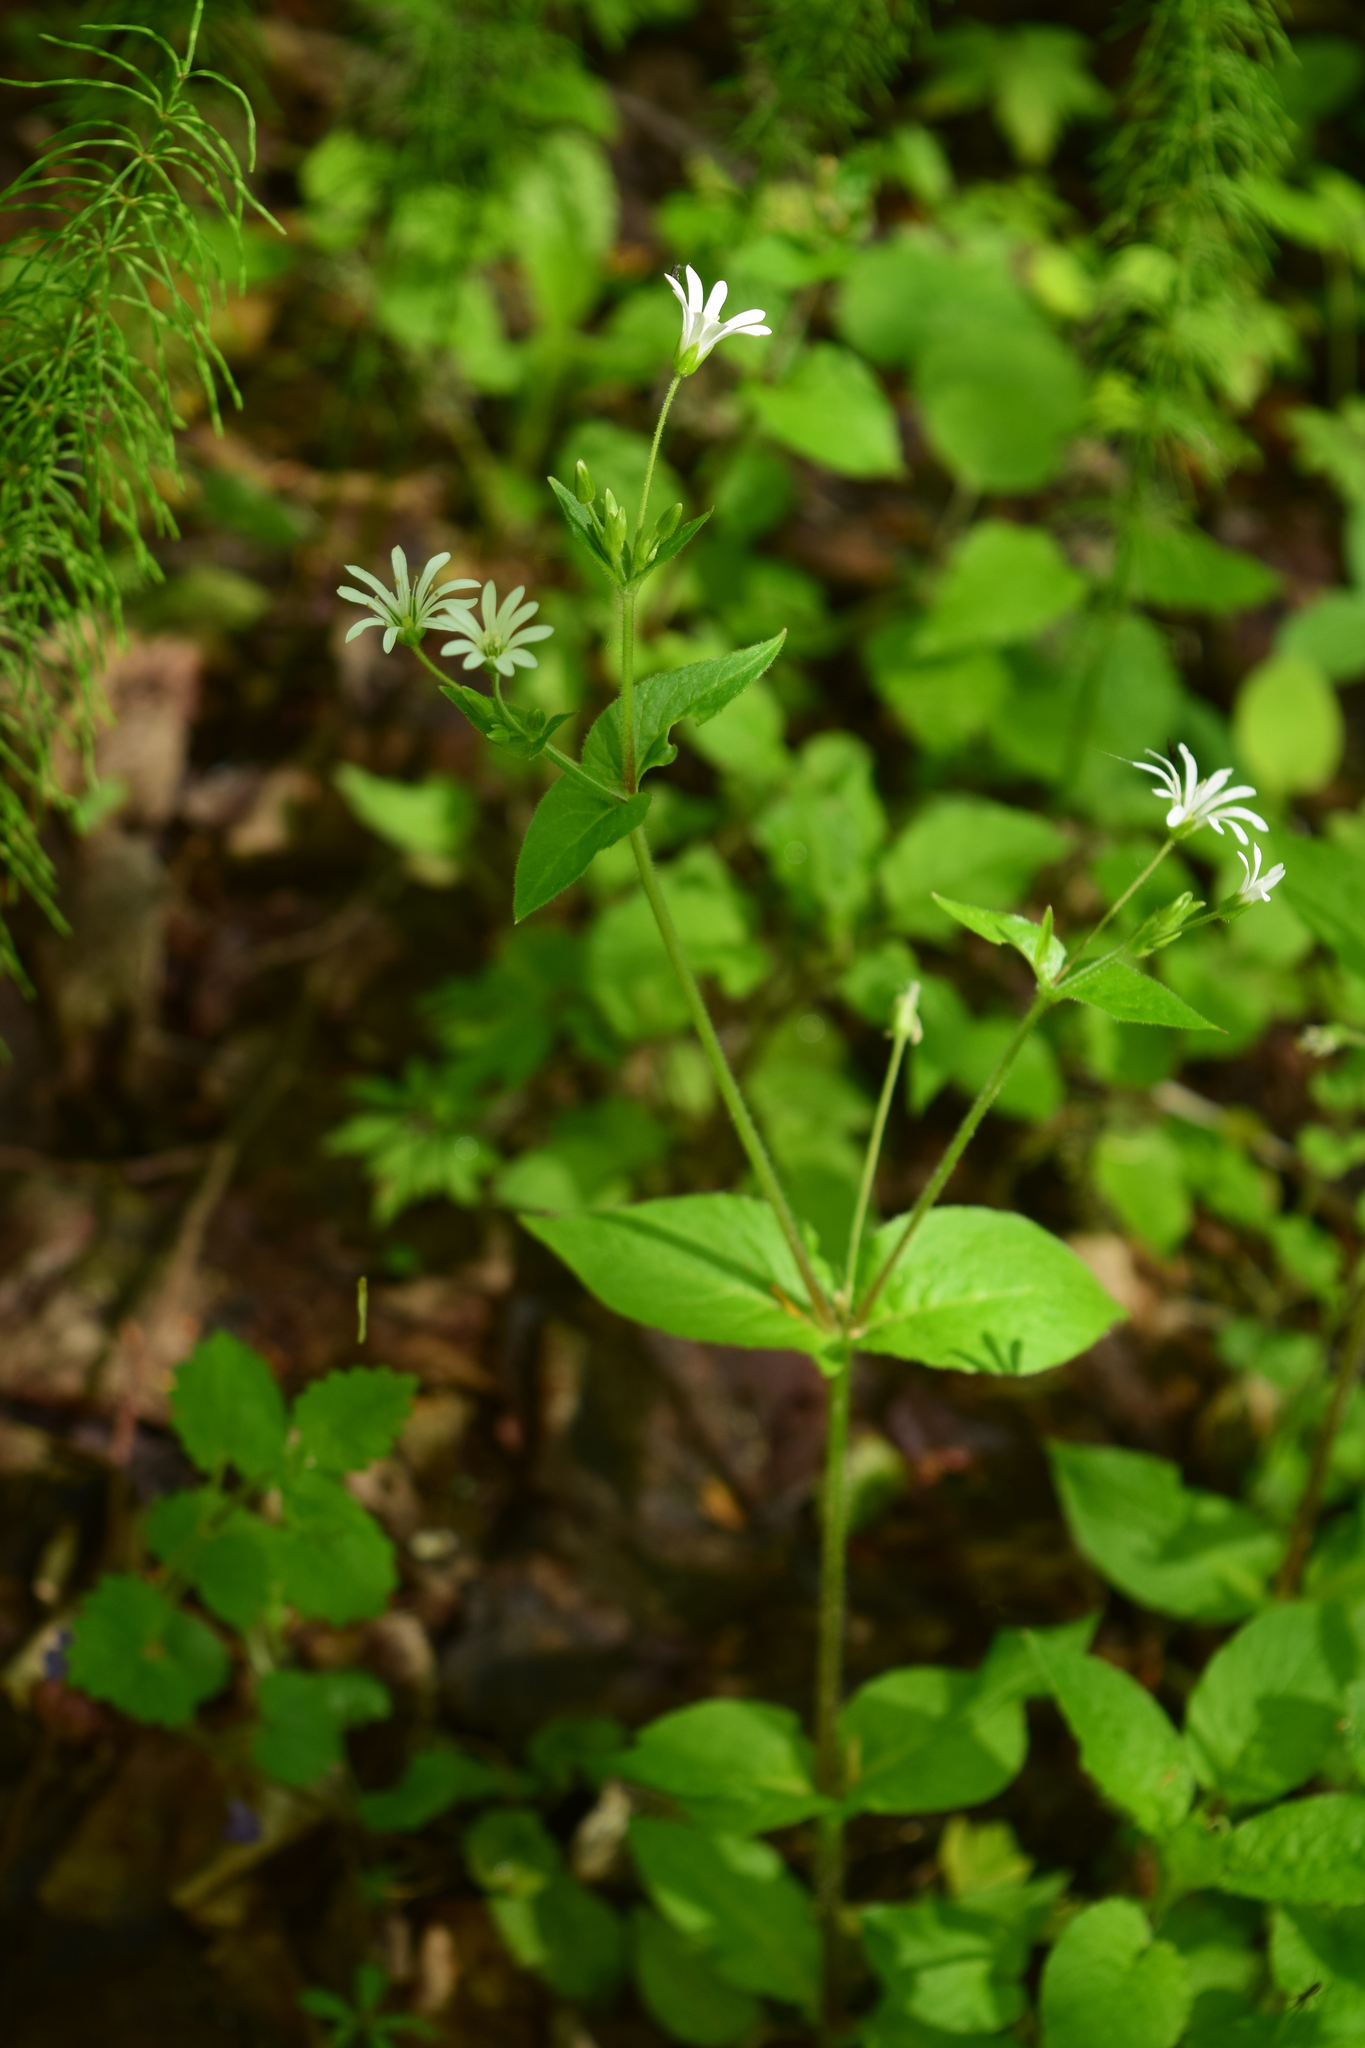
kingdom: Plantae
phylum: Tracheophyta
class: Magnoliopsida
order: Caryophyllales
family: Caryophyllaceae
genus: Stellaria
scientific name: Stellaria nemorum
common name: Wood stitchwort
